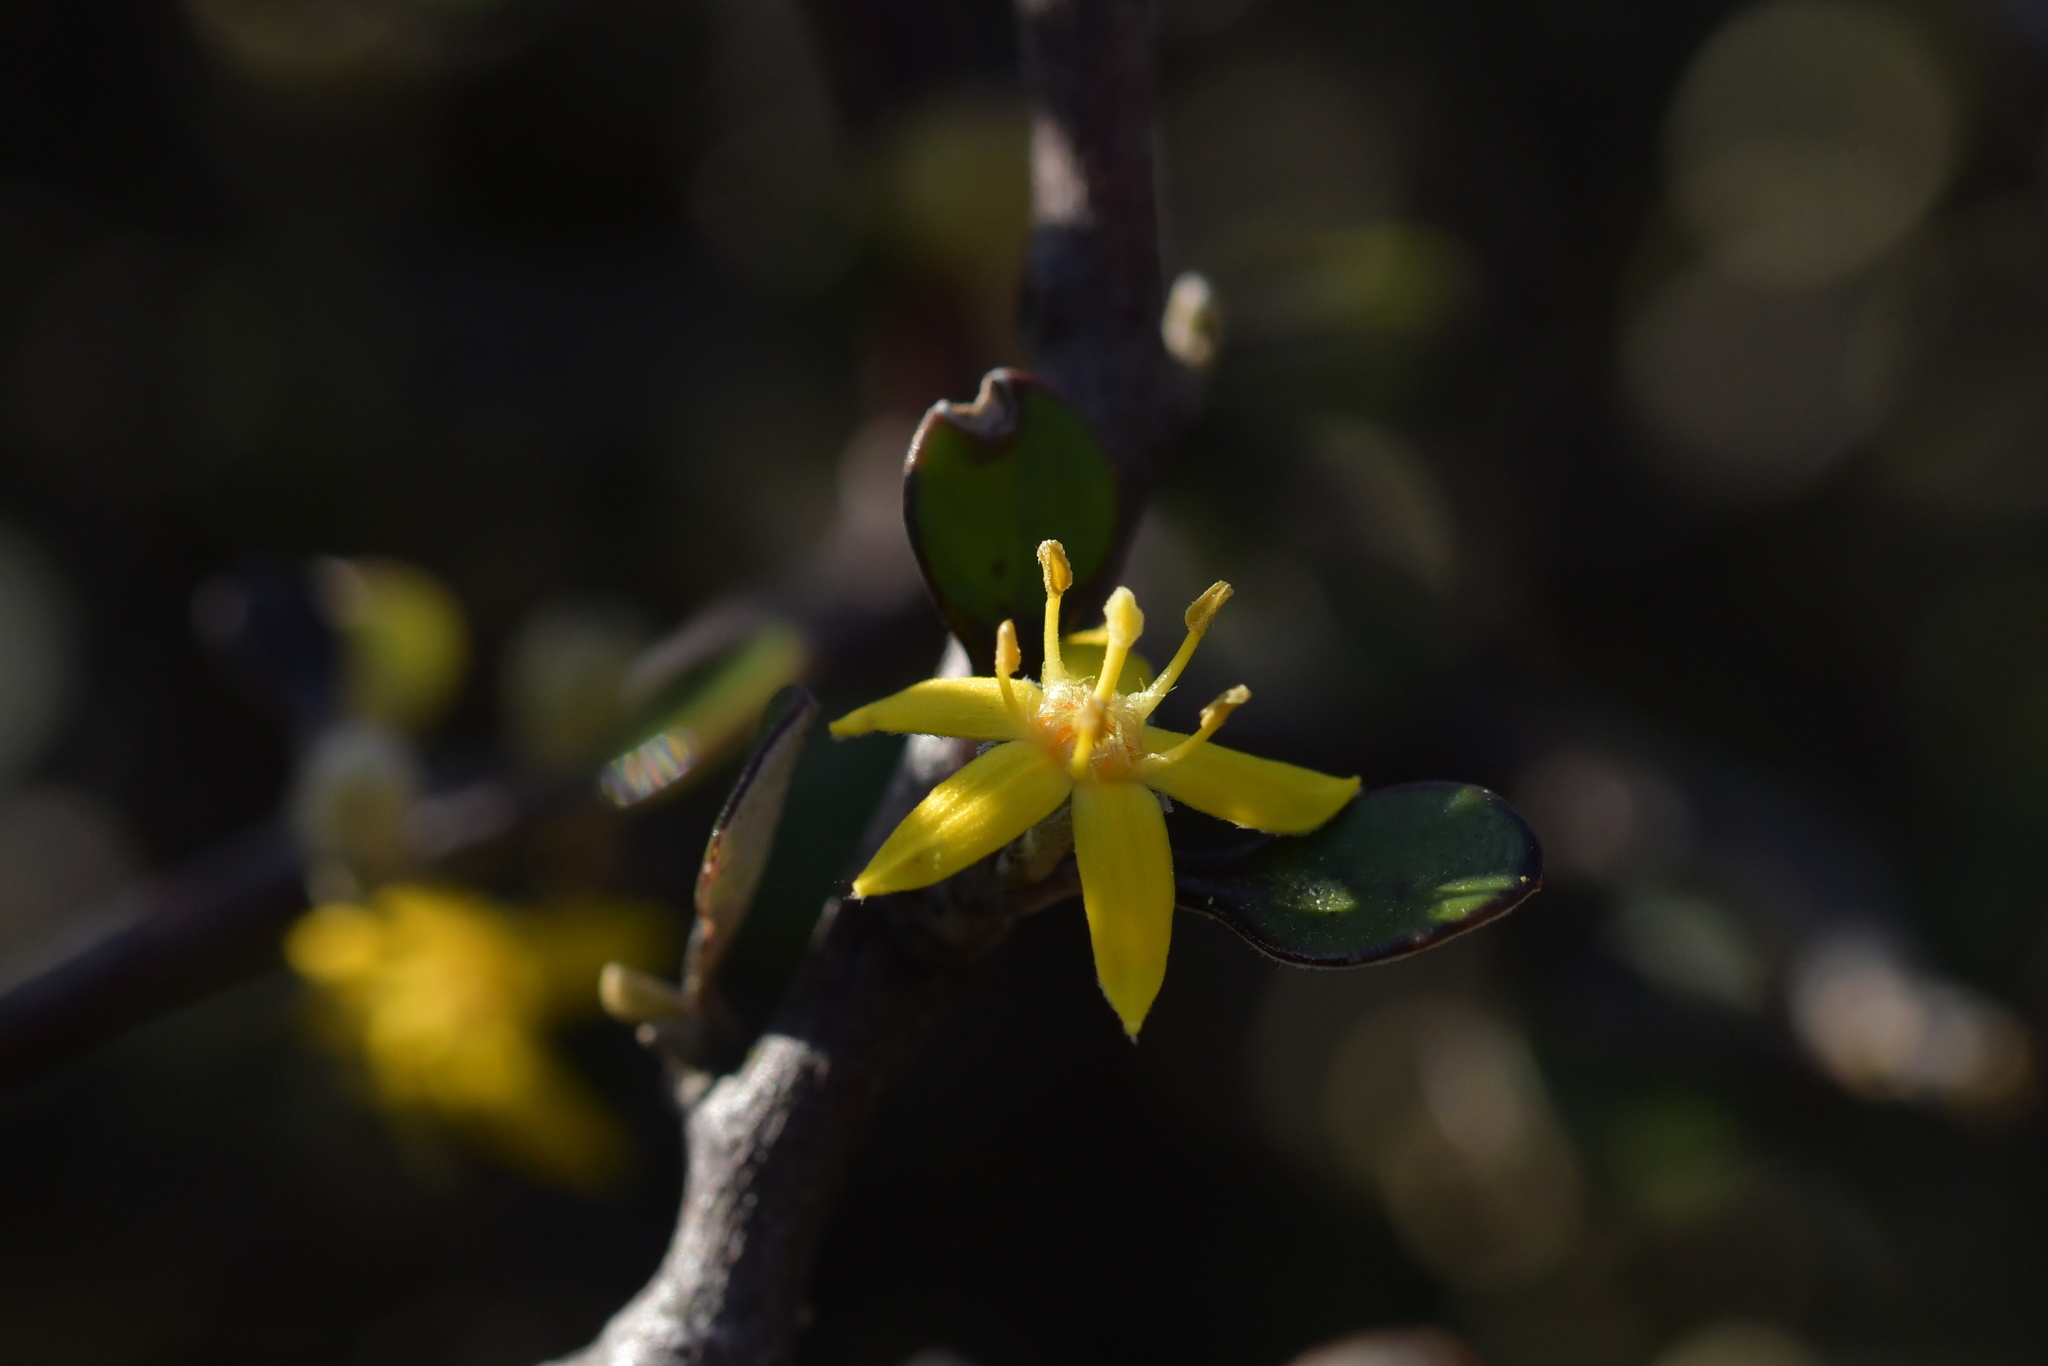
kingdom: Plantae
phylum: Tracheophyta
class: Magnoliopsida
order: Asterales
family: Argophyllaceae
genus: Corokia
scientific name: Corokia cotoneaster
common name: Wire nettingbush
